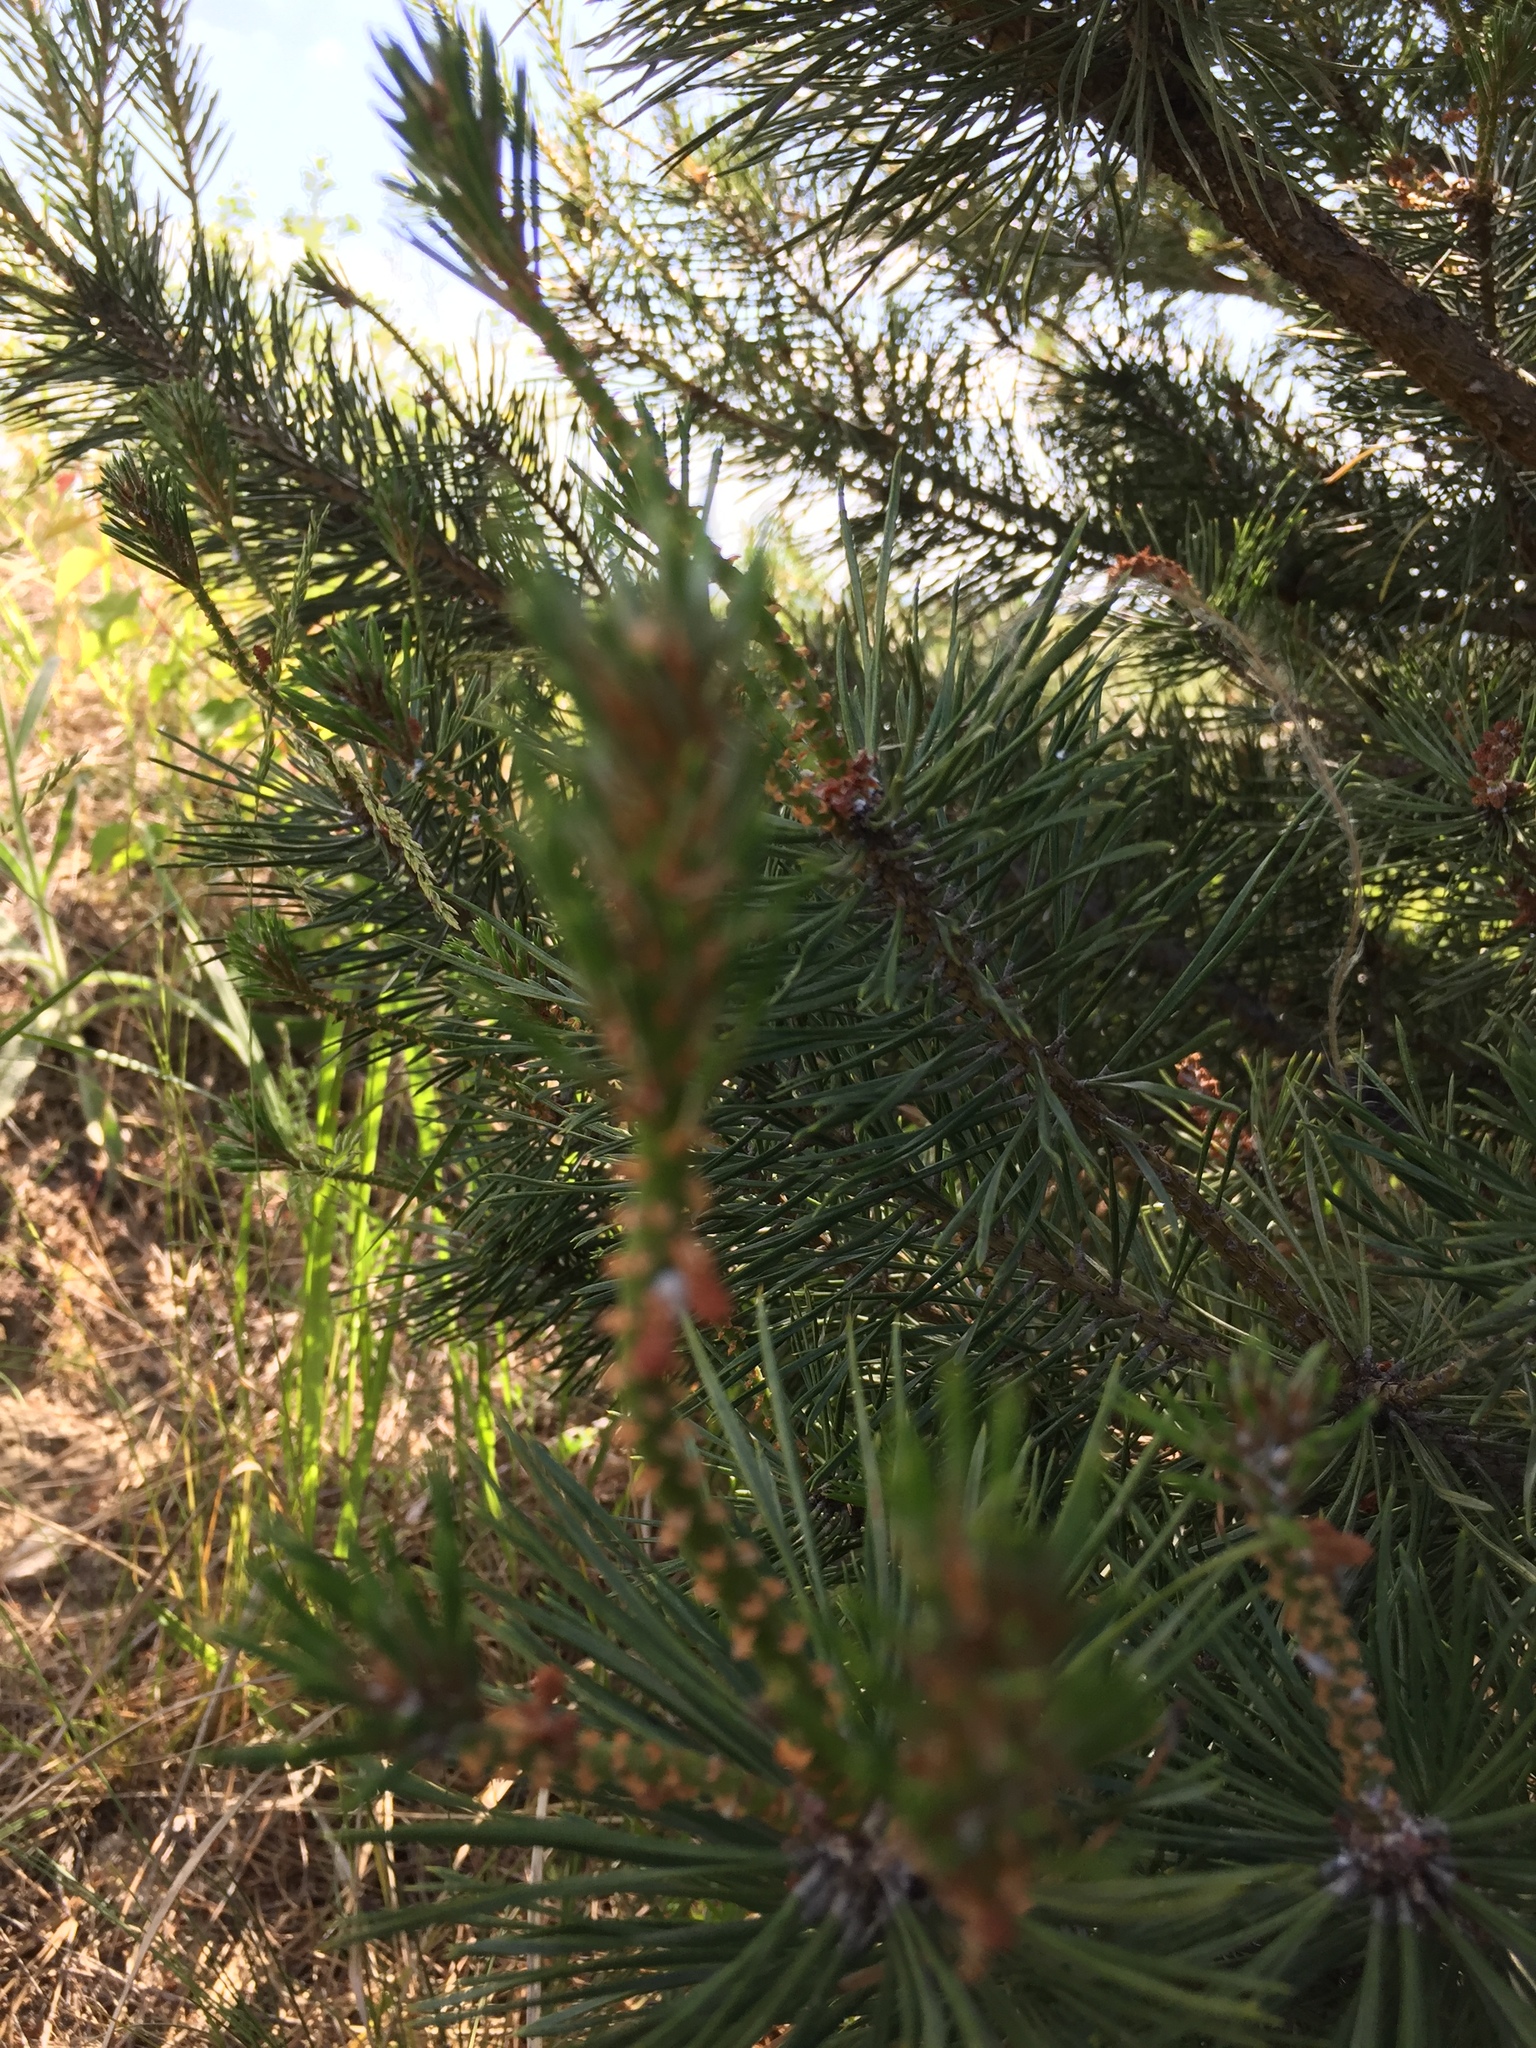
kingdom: Plantae
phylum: Tracheophyta
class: Pinopsida
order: Pinales
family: Pinaceae
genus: Pinus
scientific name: Pinus sylvestris
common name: Scots pine
